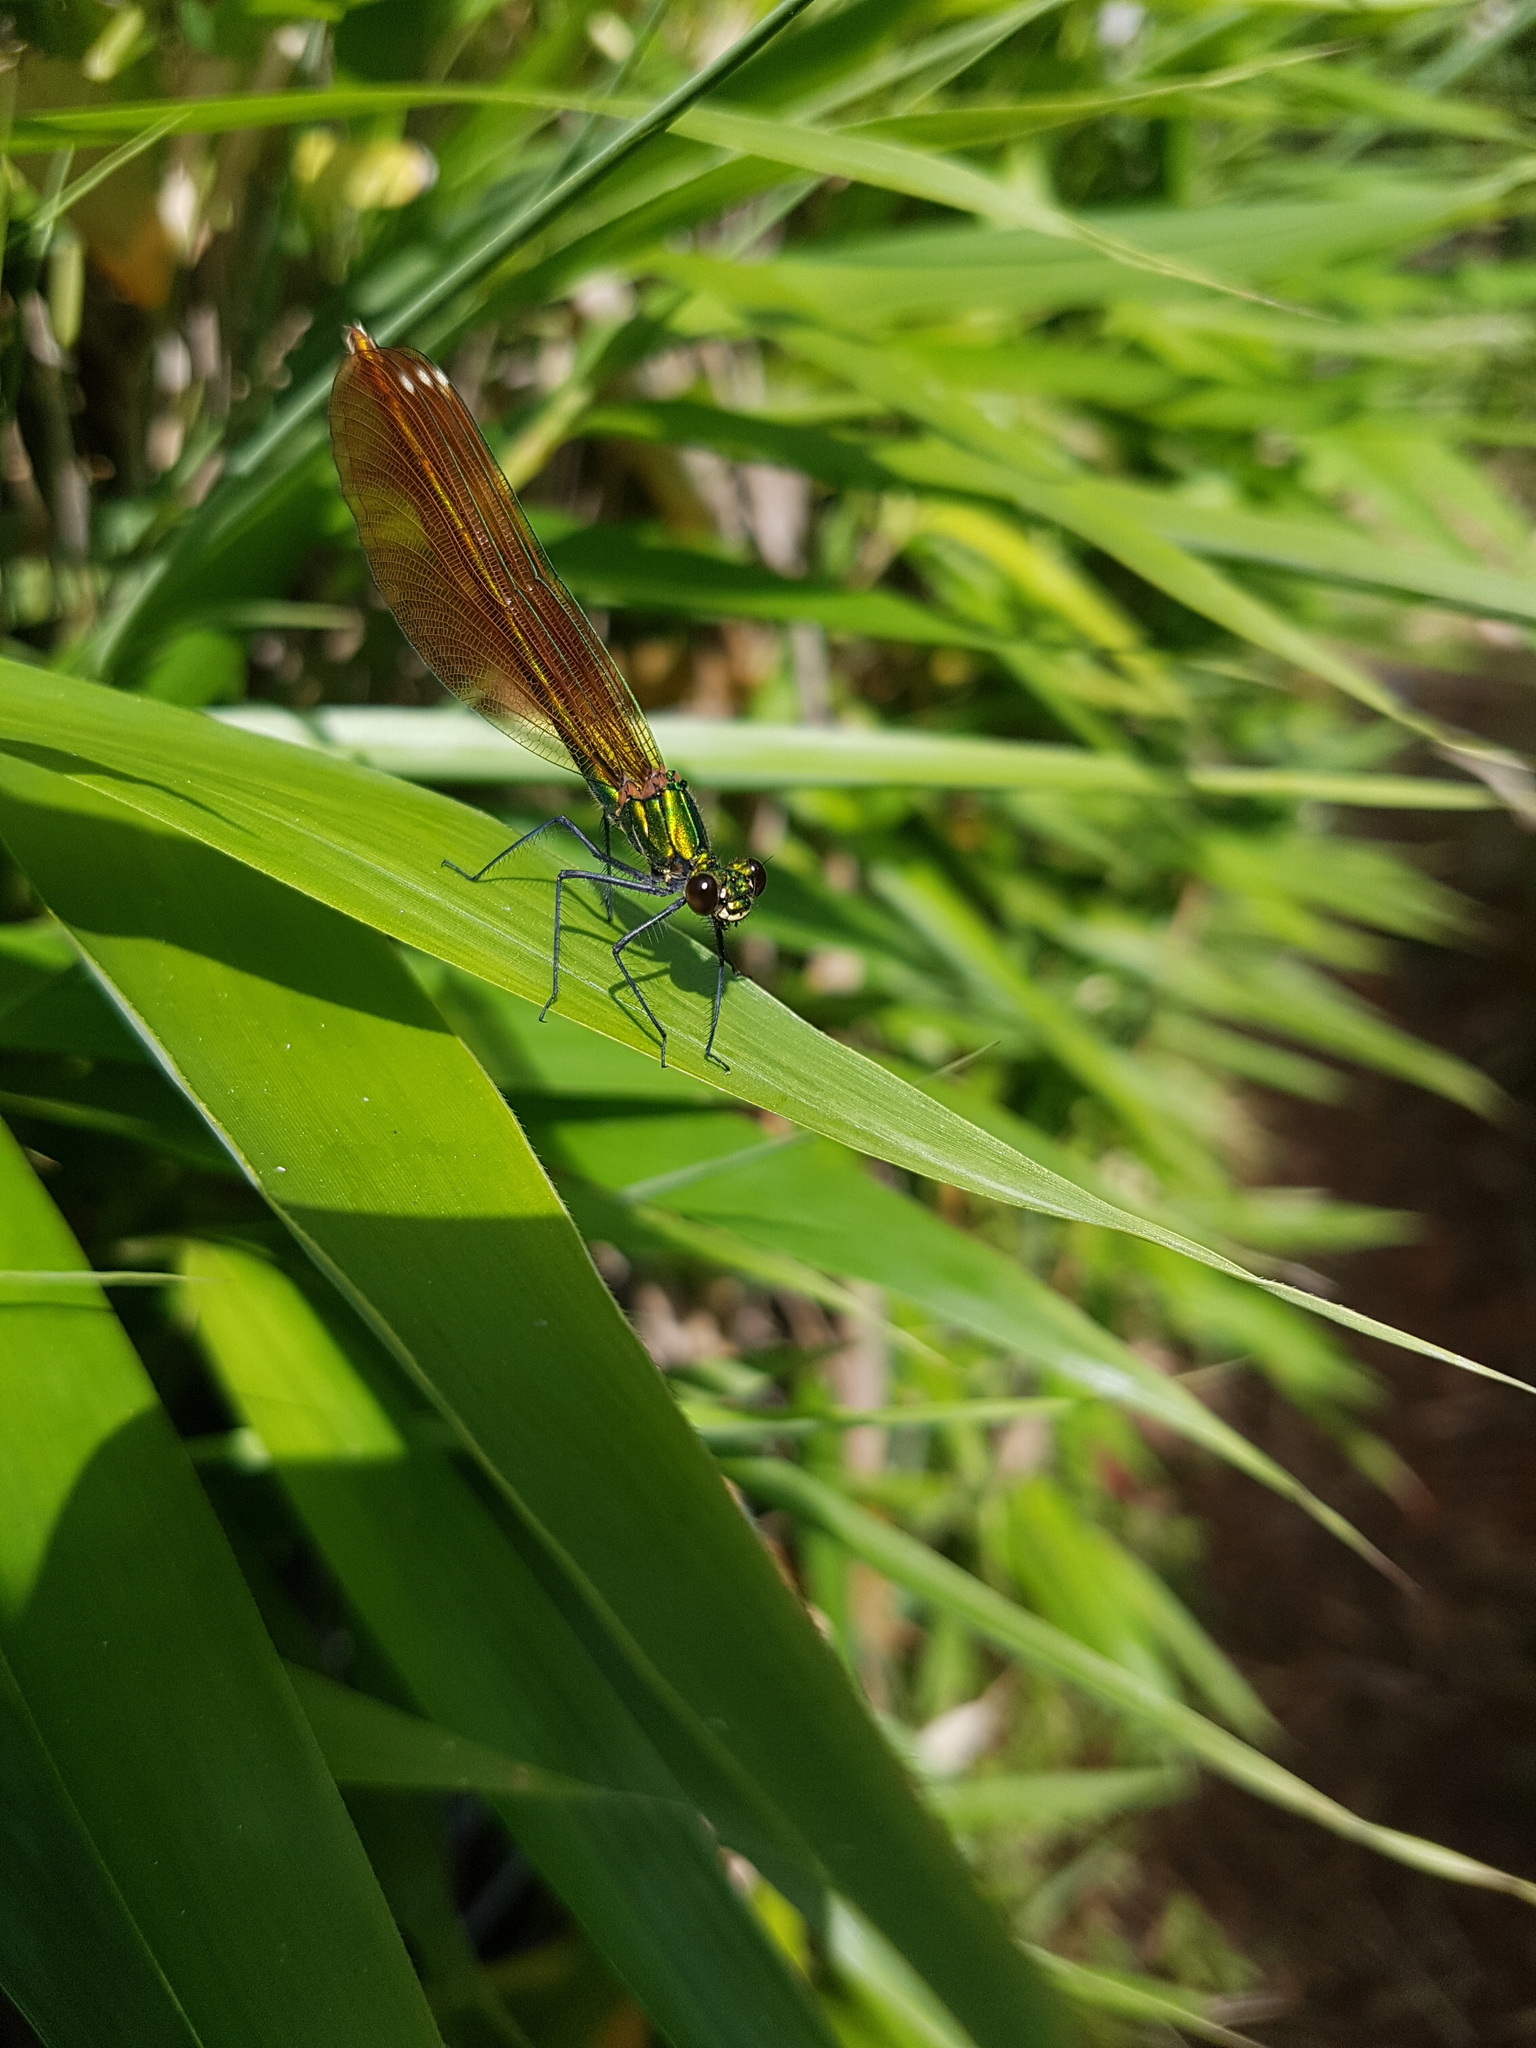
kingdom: Animalia
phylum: Arthropoda
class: Insecta
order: Odonata
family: Calopterygidae
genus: Calopteryx
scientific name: Calopteryx virgo
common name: Beautiful demoiselle
